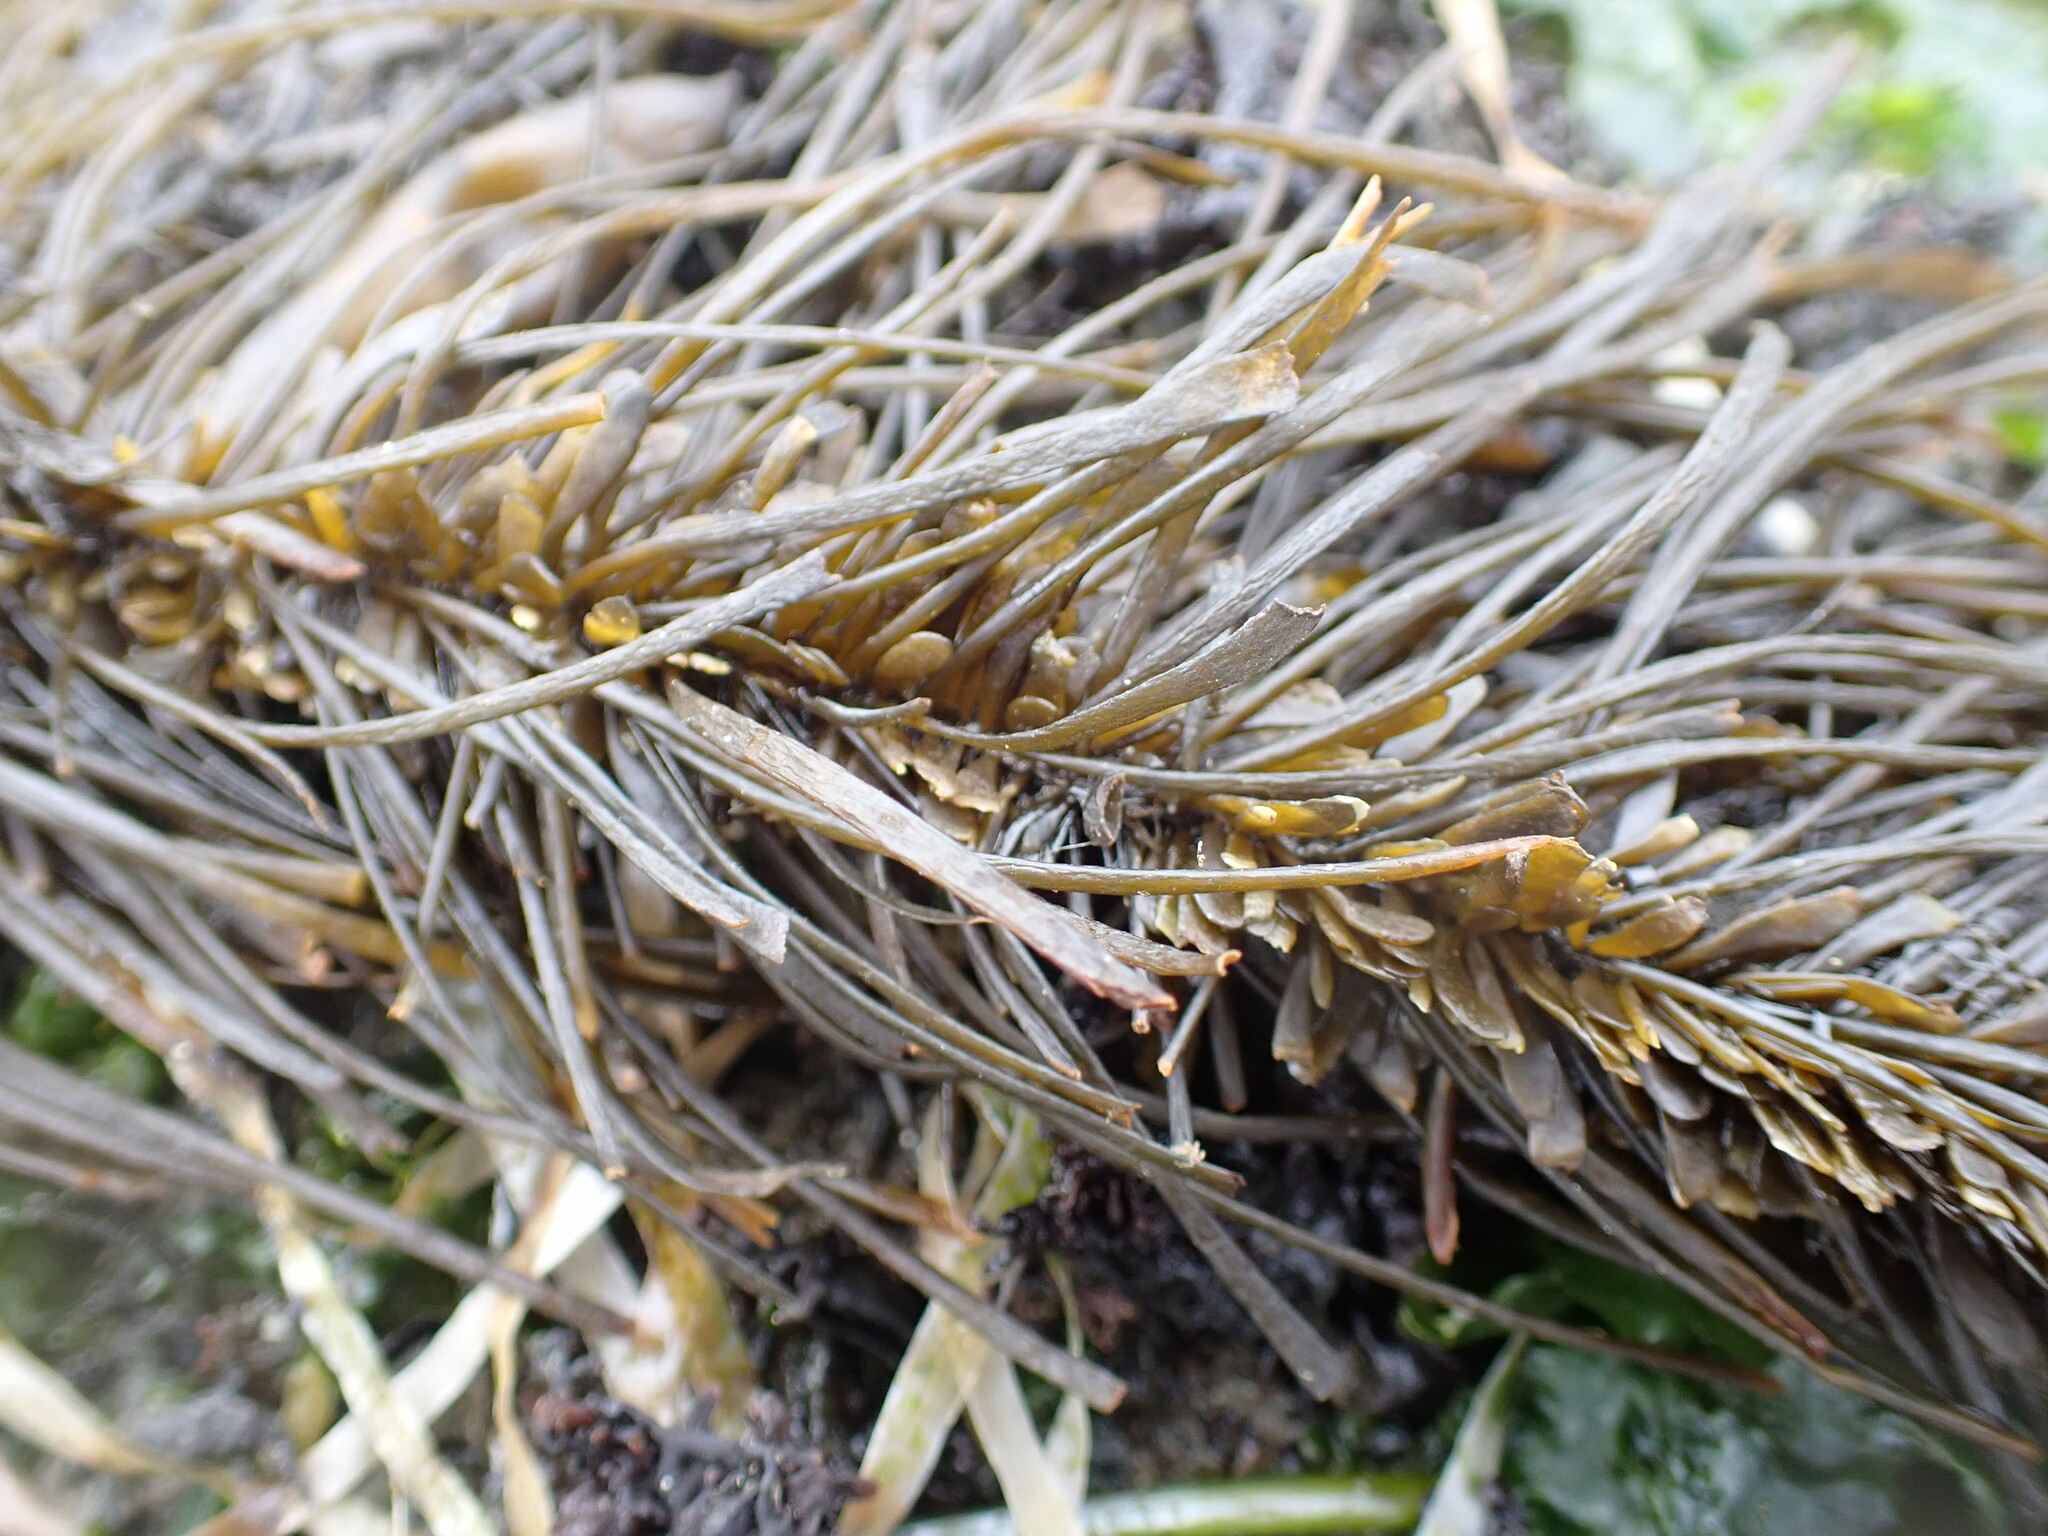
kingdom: Chromista
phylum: Ochrophyta
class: Phaeophyceae
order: Laminariales
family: Lessoniaceae
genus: Egregia
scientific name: Egregia menziesii
